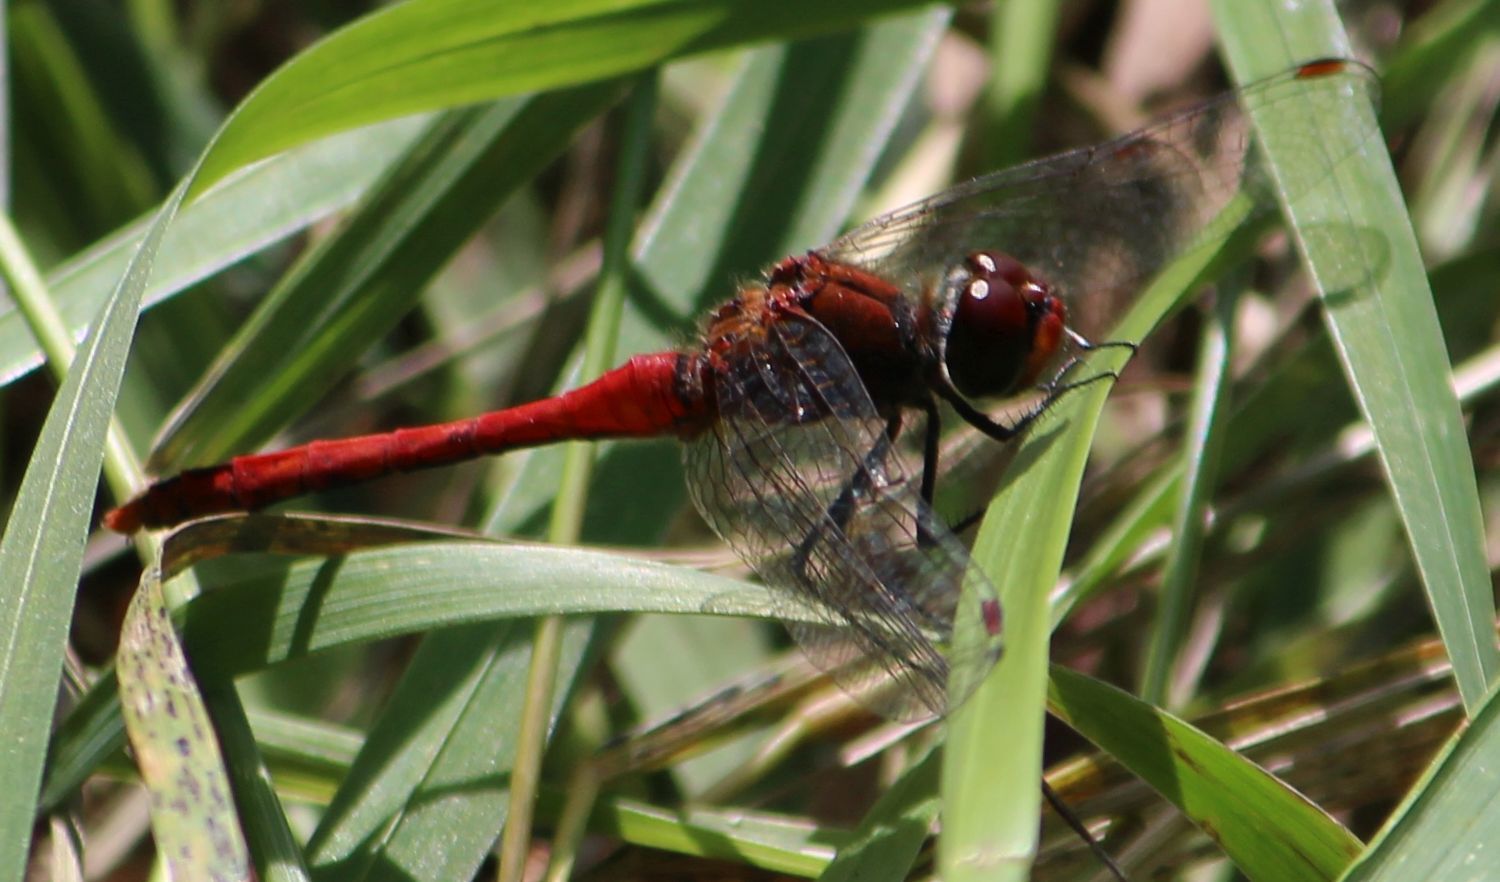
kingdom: Animalia
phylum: Arthropoda
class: Insecta
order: Odonata
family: Libellulidae
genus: Sympetrum
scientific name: Sympetrum sanguineum
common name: Ruddy darter
